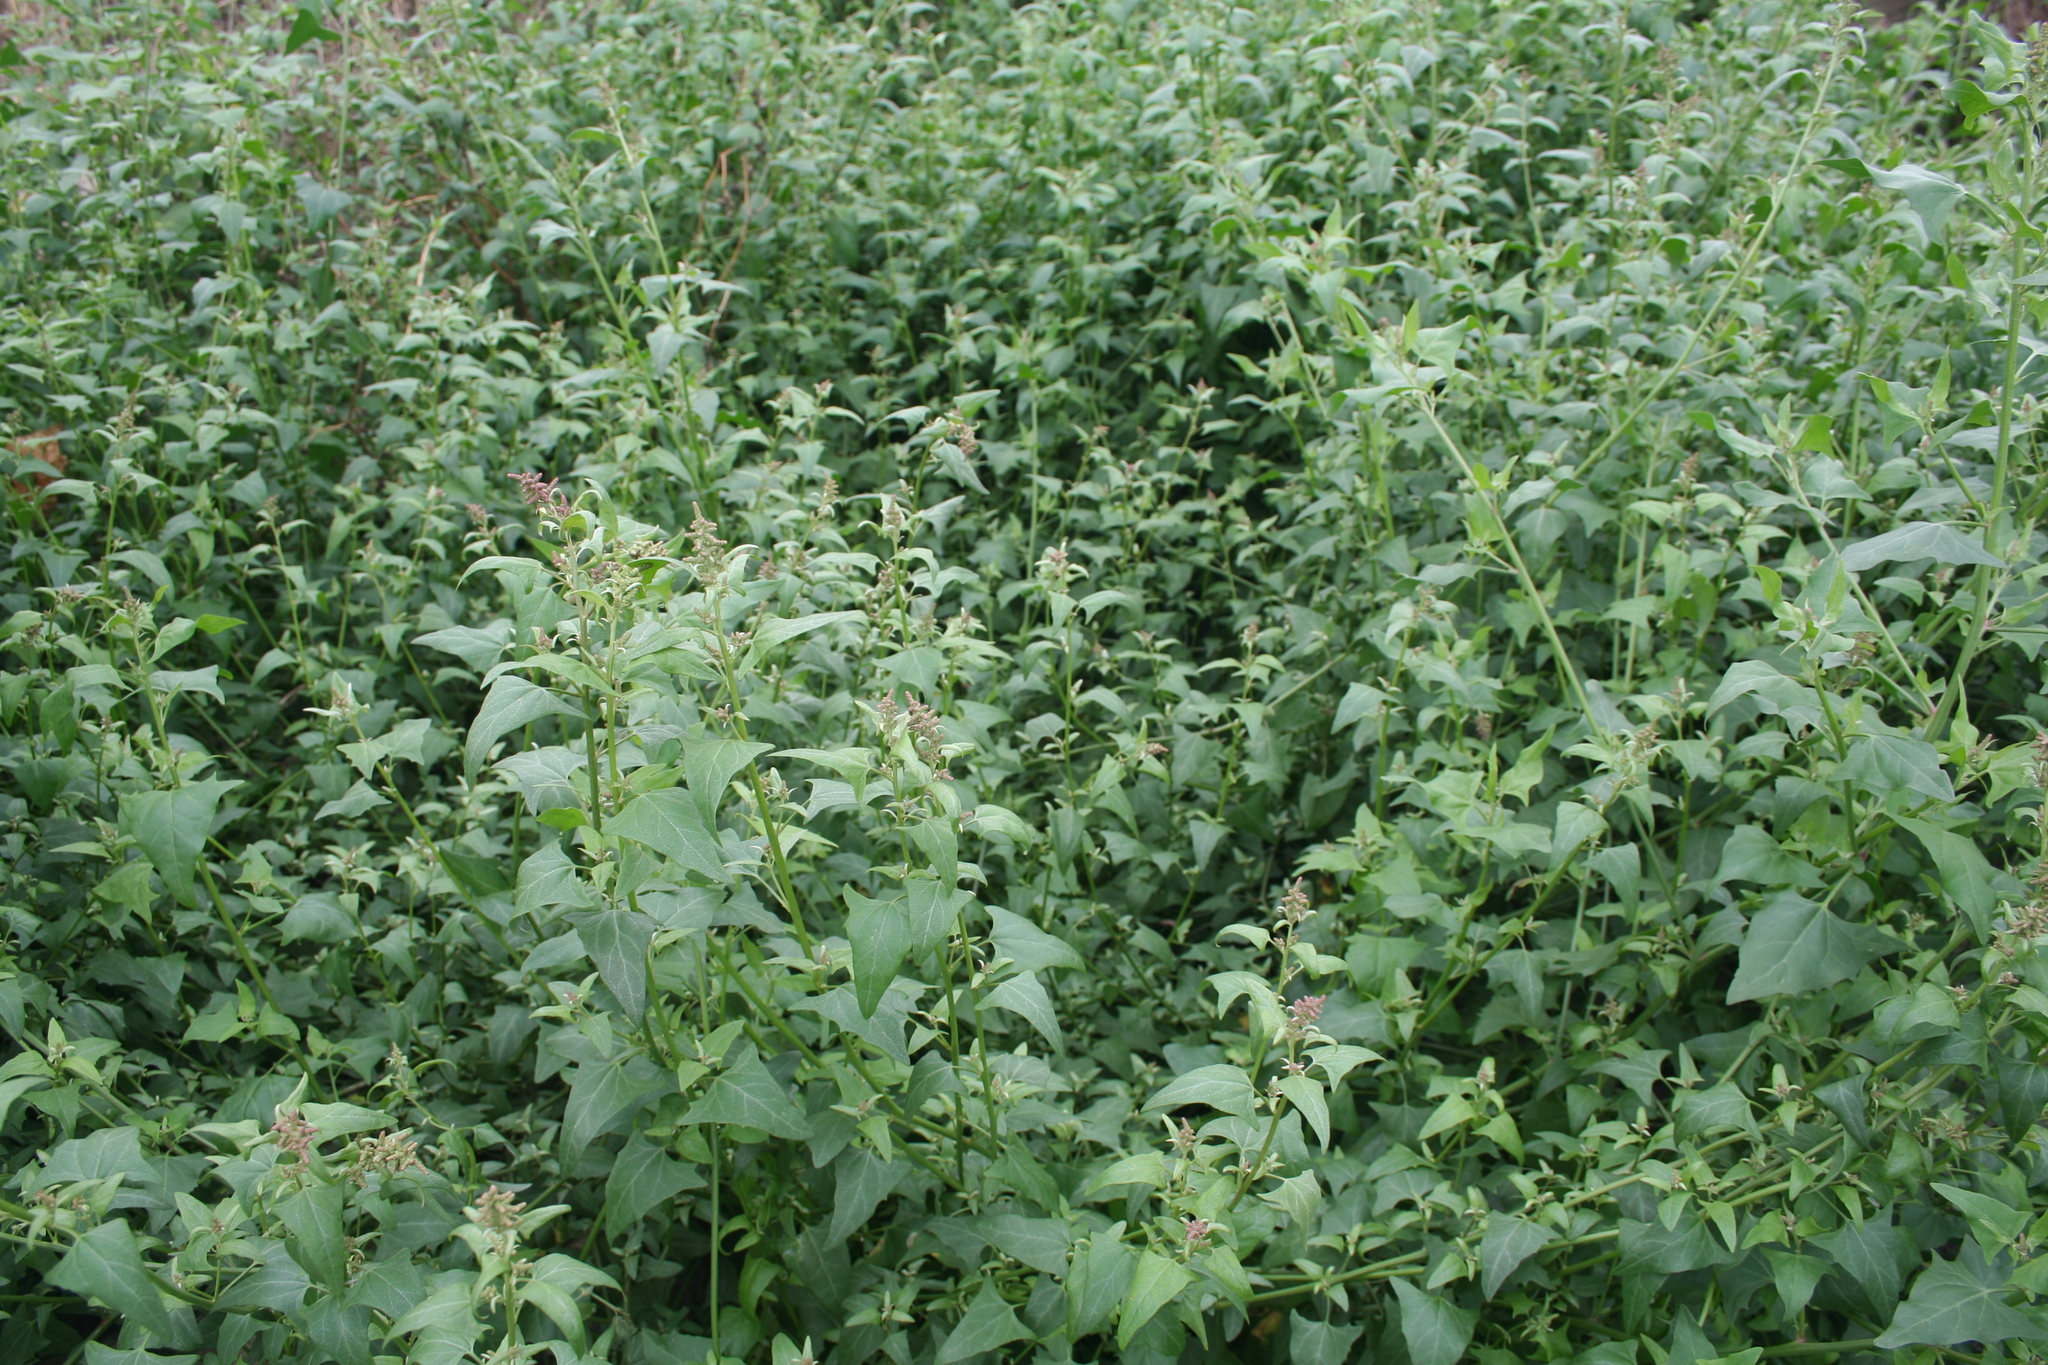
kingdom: Plantae
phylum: Tracheophyta
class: Magnoliopsida
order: Caryophyllales
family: Amaranthaceae
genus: Atriplex
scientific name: Atriplex prostrata
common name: Spear-leaved orache
